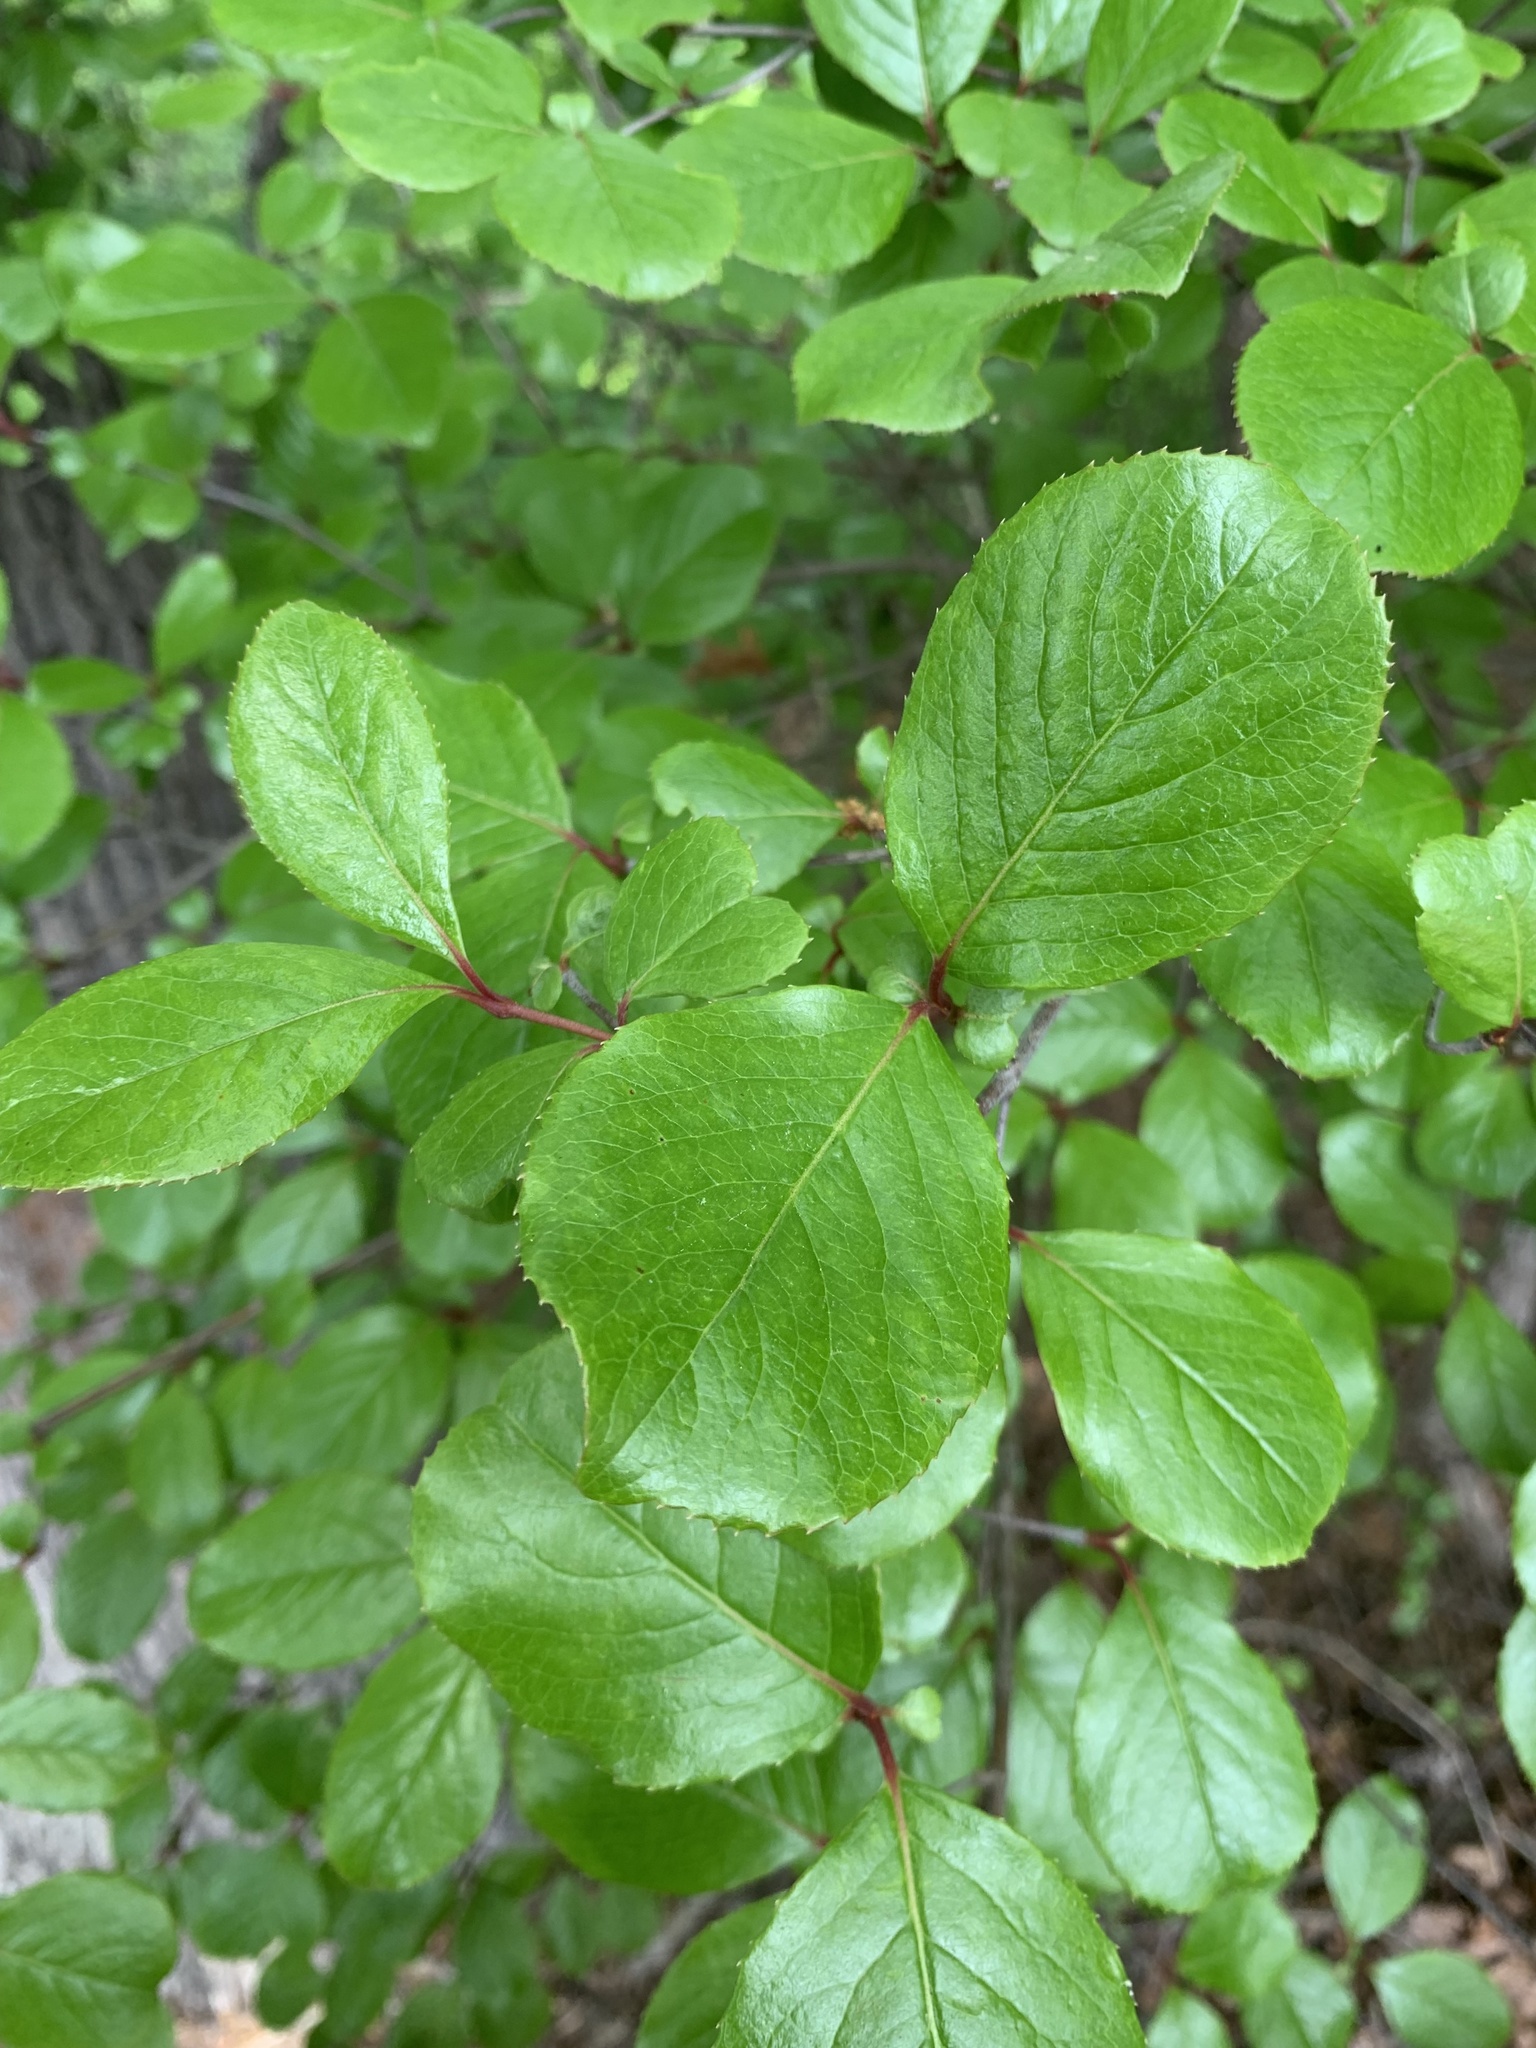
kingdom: Plantae
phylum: Tracheophyta
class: Magnoliopsida
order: Dipsacales
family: Viburnaceae
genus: Viburnum
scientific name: Viburnum rufidulum
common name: Blue haw
